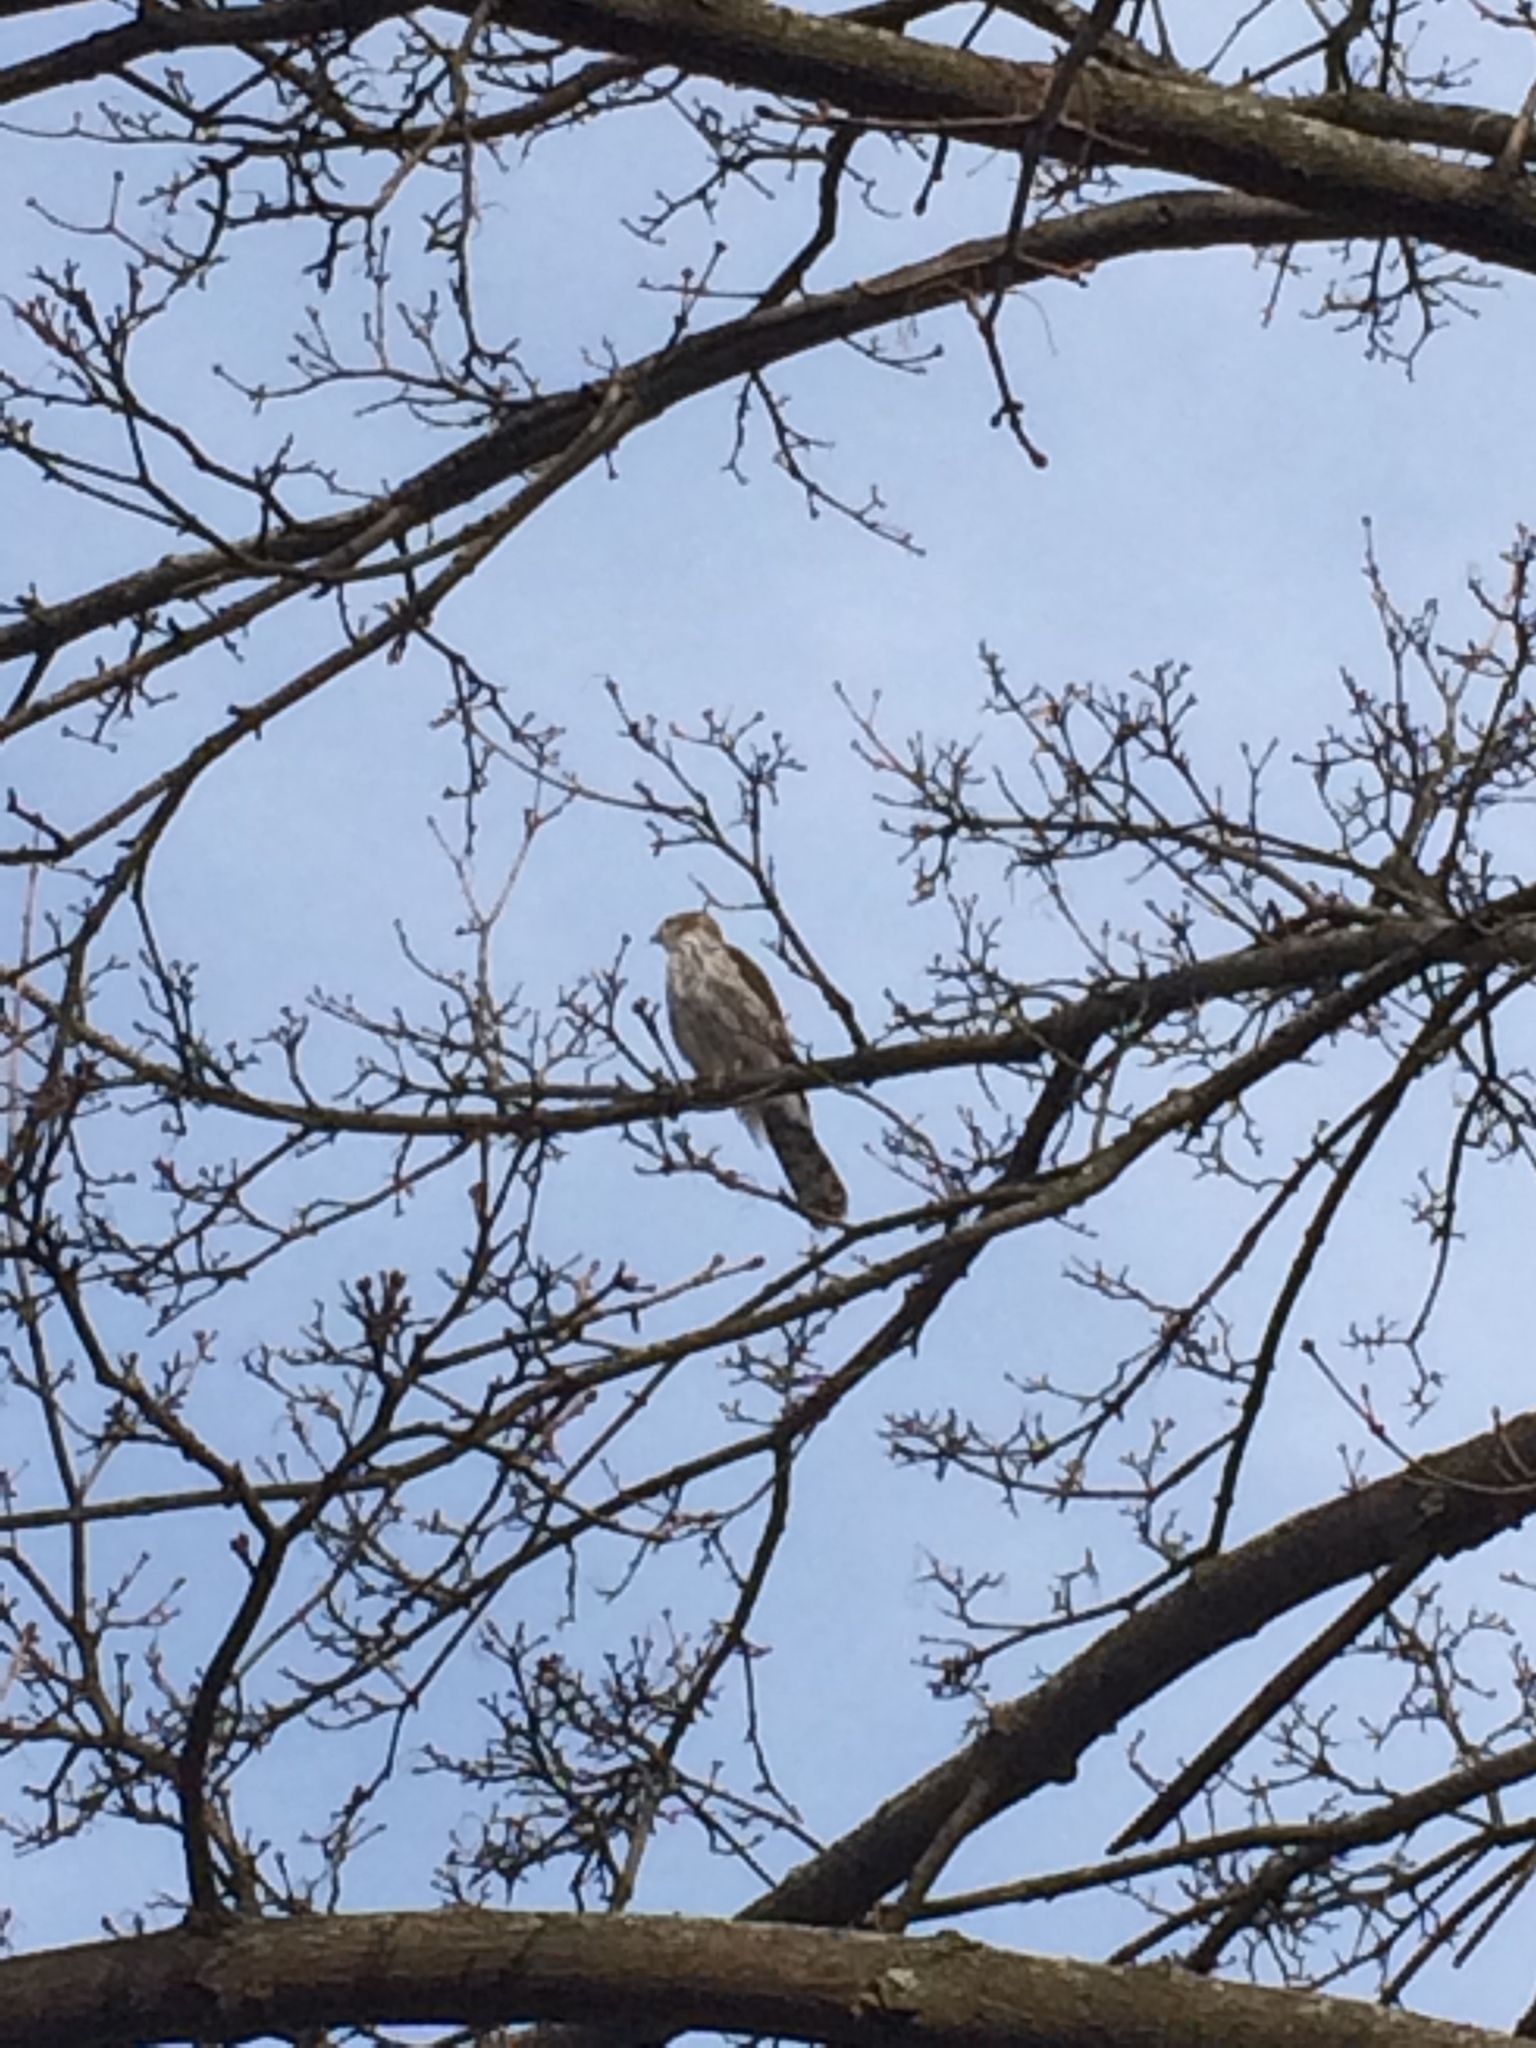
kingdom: Animalia
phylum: Chordata
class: Aves
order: Accipitriformes
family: Accipitridae
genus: Accipiter
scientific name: Accipiter cooperii
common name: Cooper's hawk
